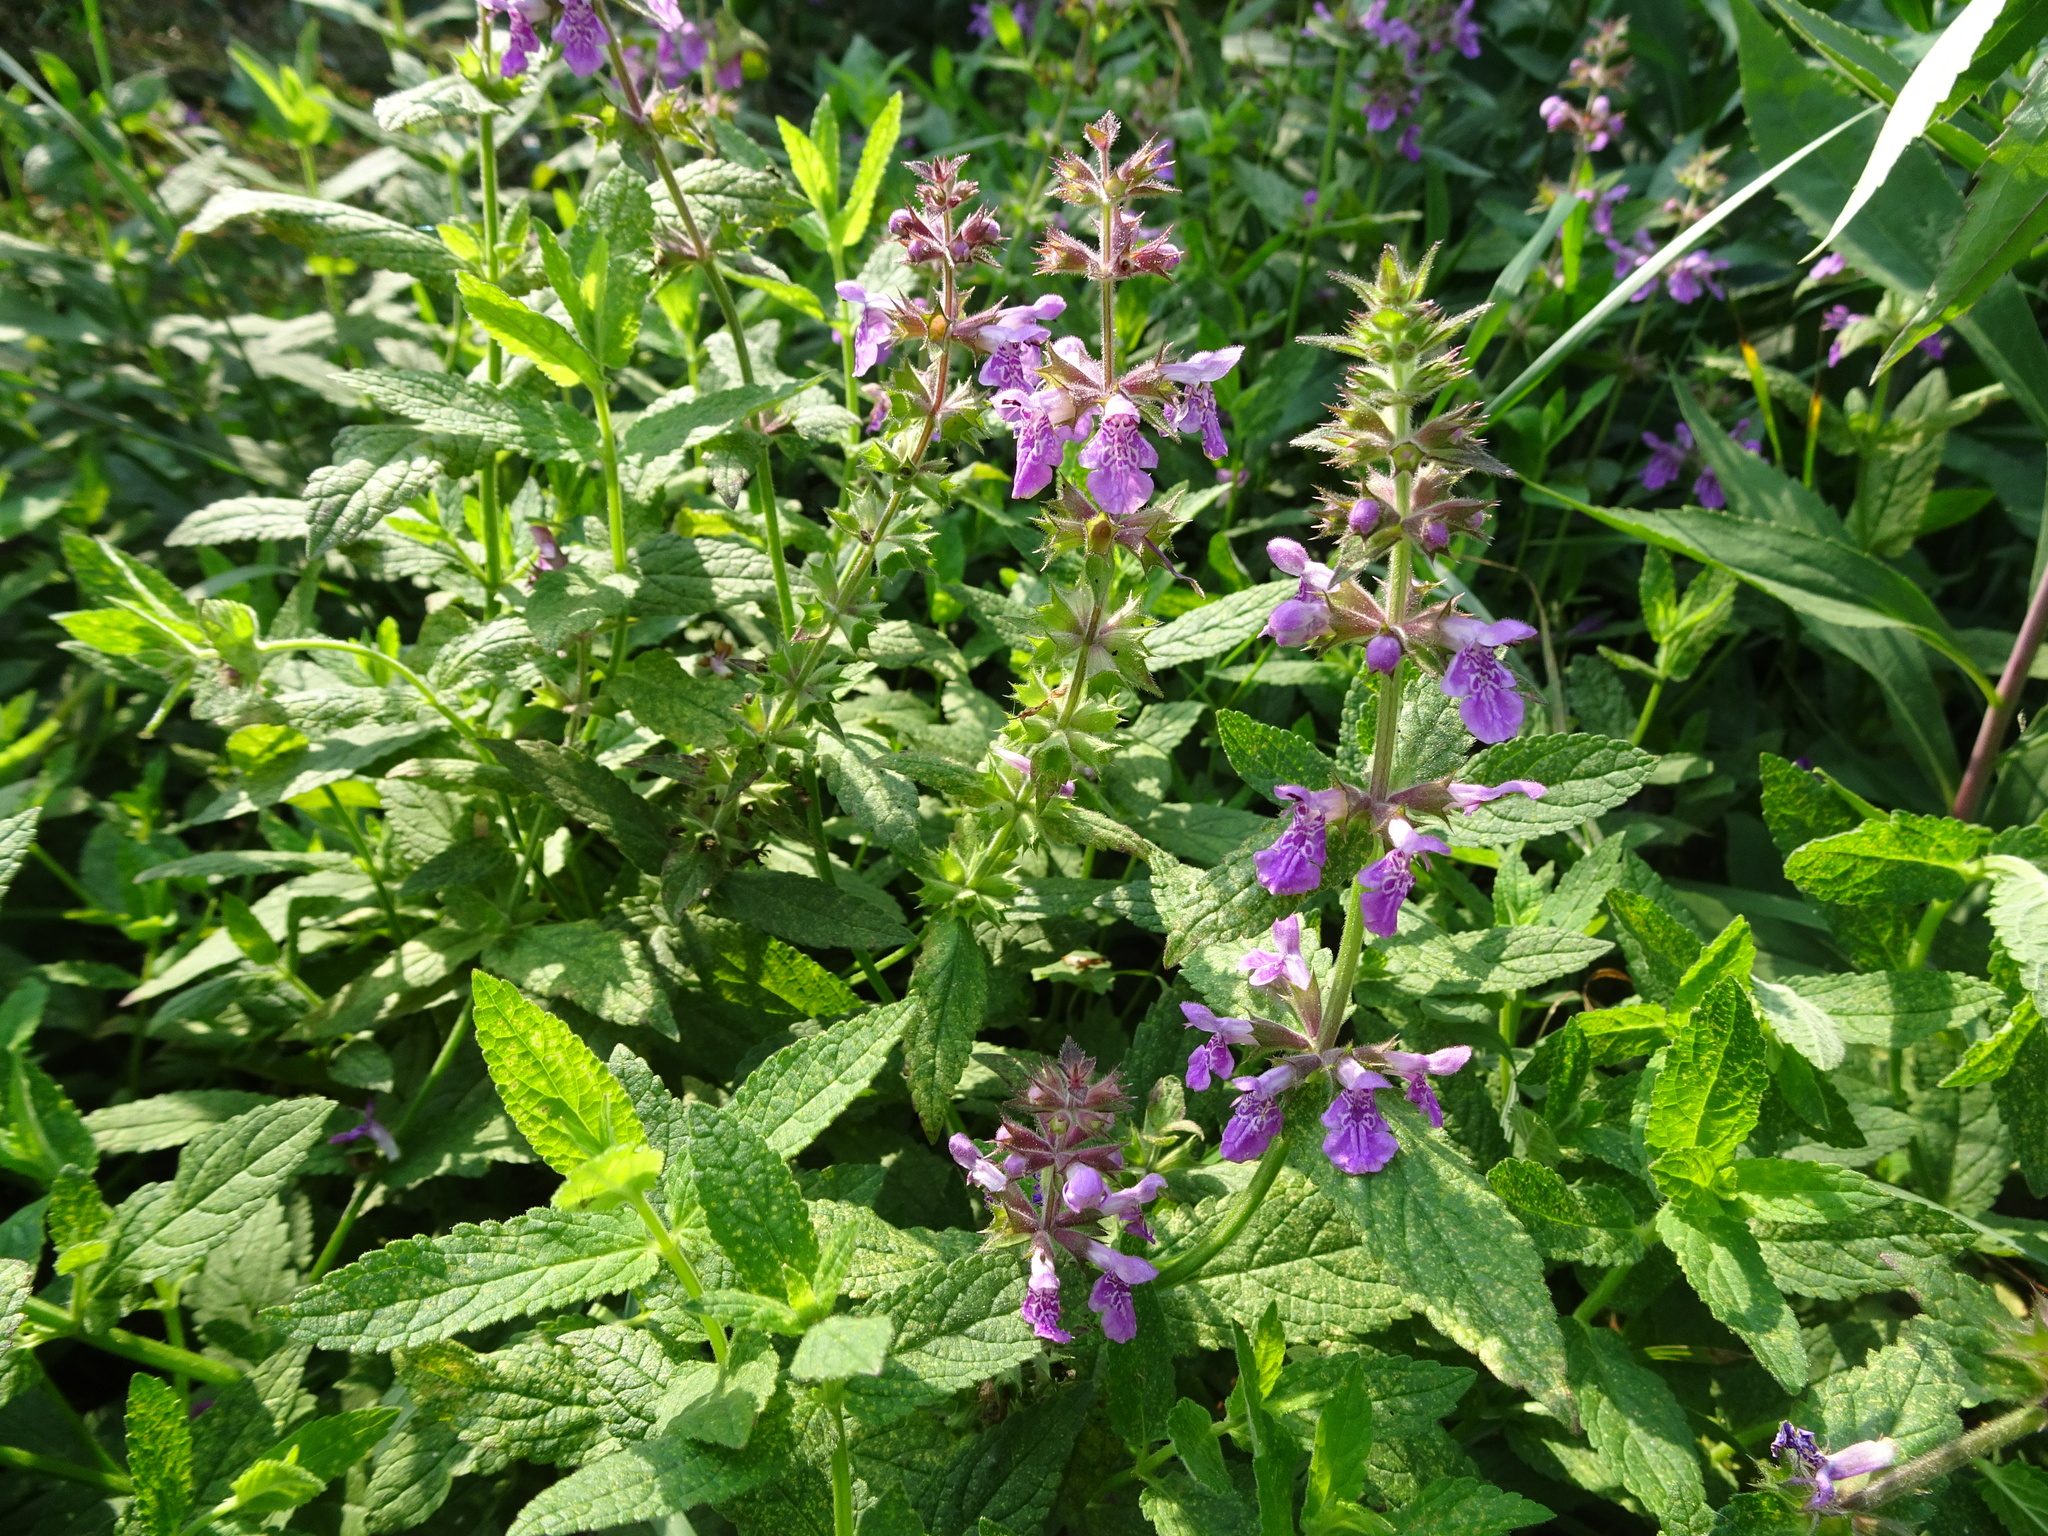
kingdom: Plantae
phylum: Tracheophyta
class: Magnoliopsida
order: Lamiales
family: Lamiaceae
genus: Stachys
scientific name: Stachys palustris
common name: Marsh woundwort
